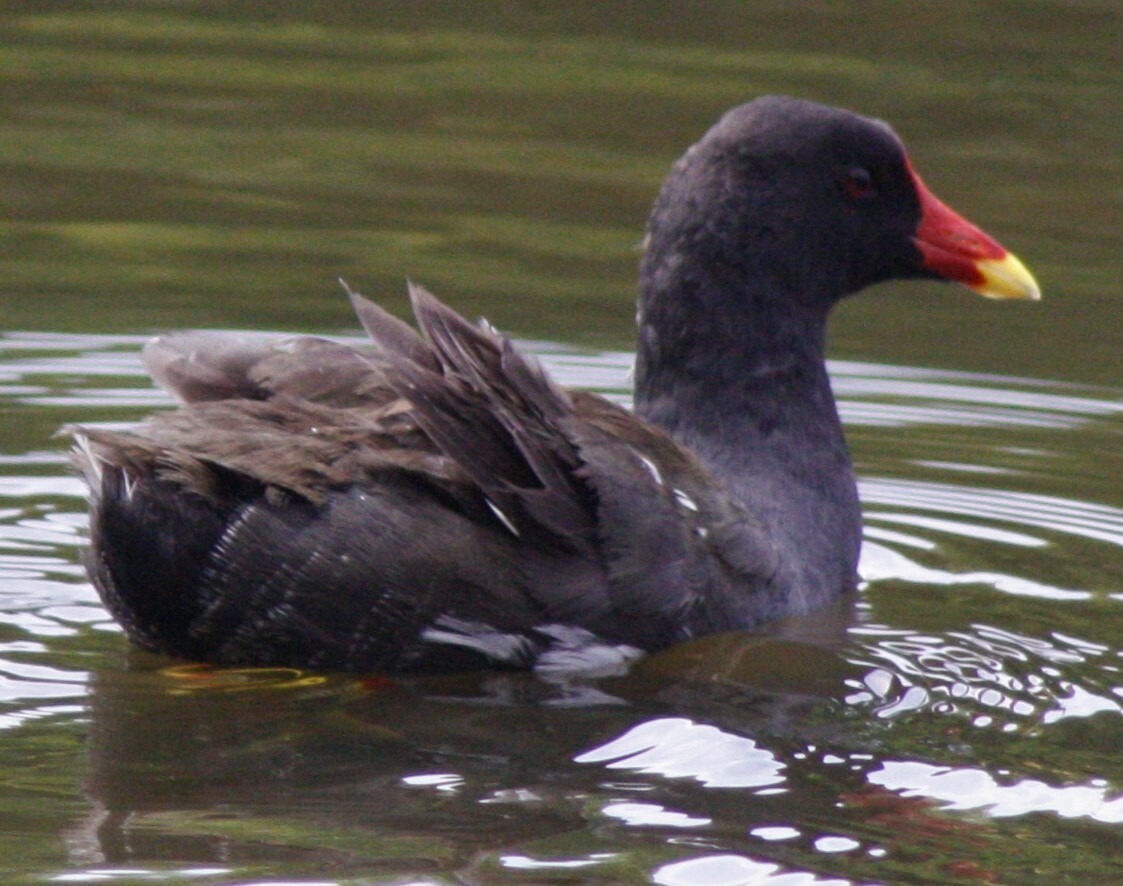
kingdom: Animalia
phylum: Chordata
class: Aves
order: Gruiformes
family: Rallidae
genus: Gallinula
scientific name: Gallinula chloropus
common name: Common moorhen
